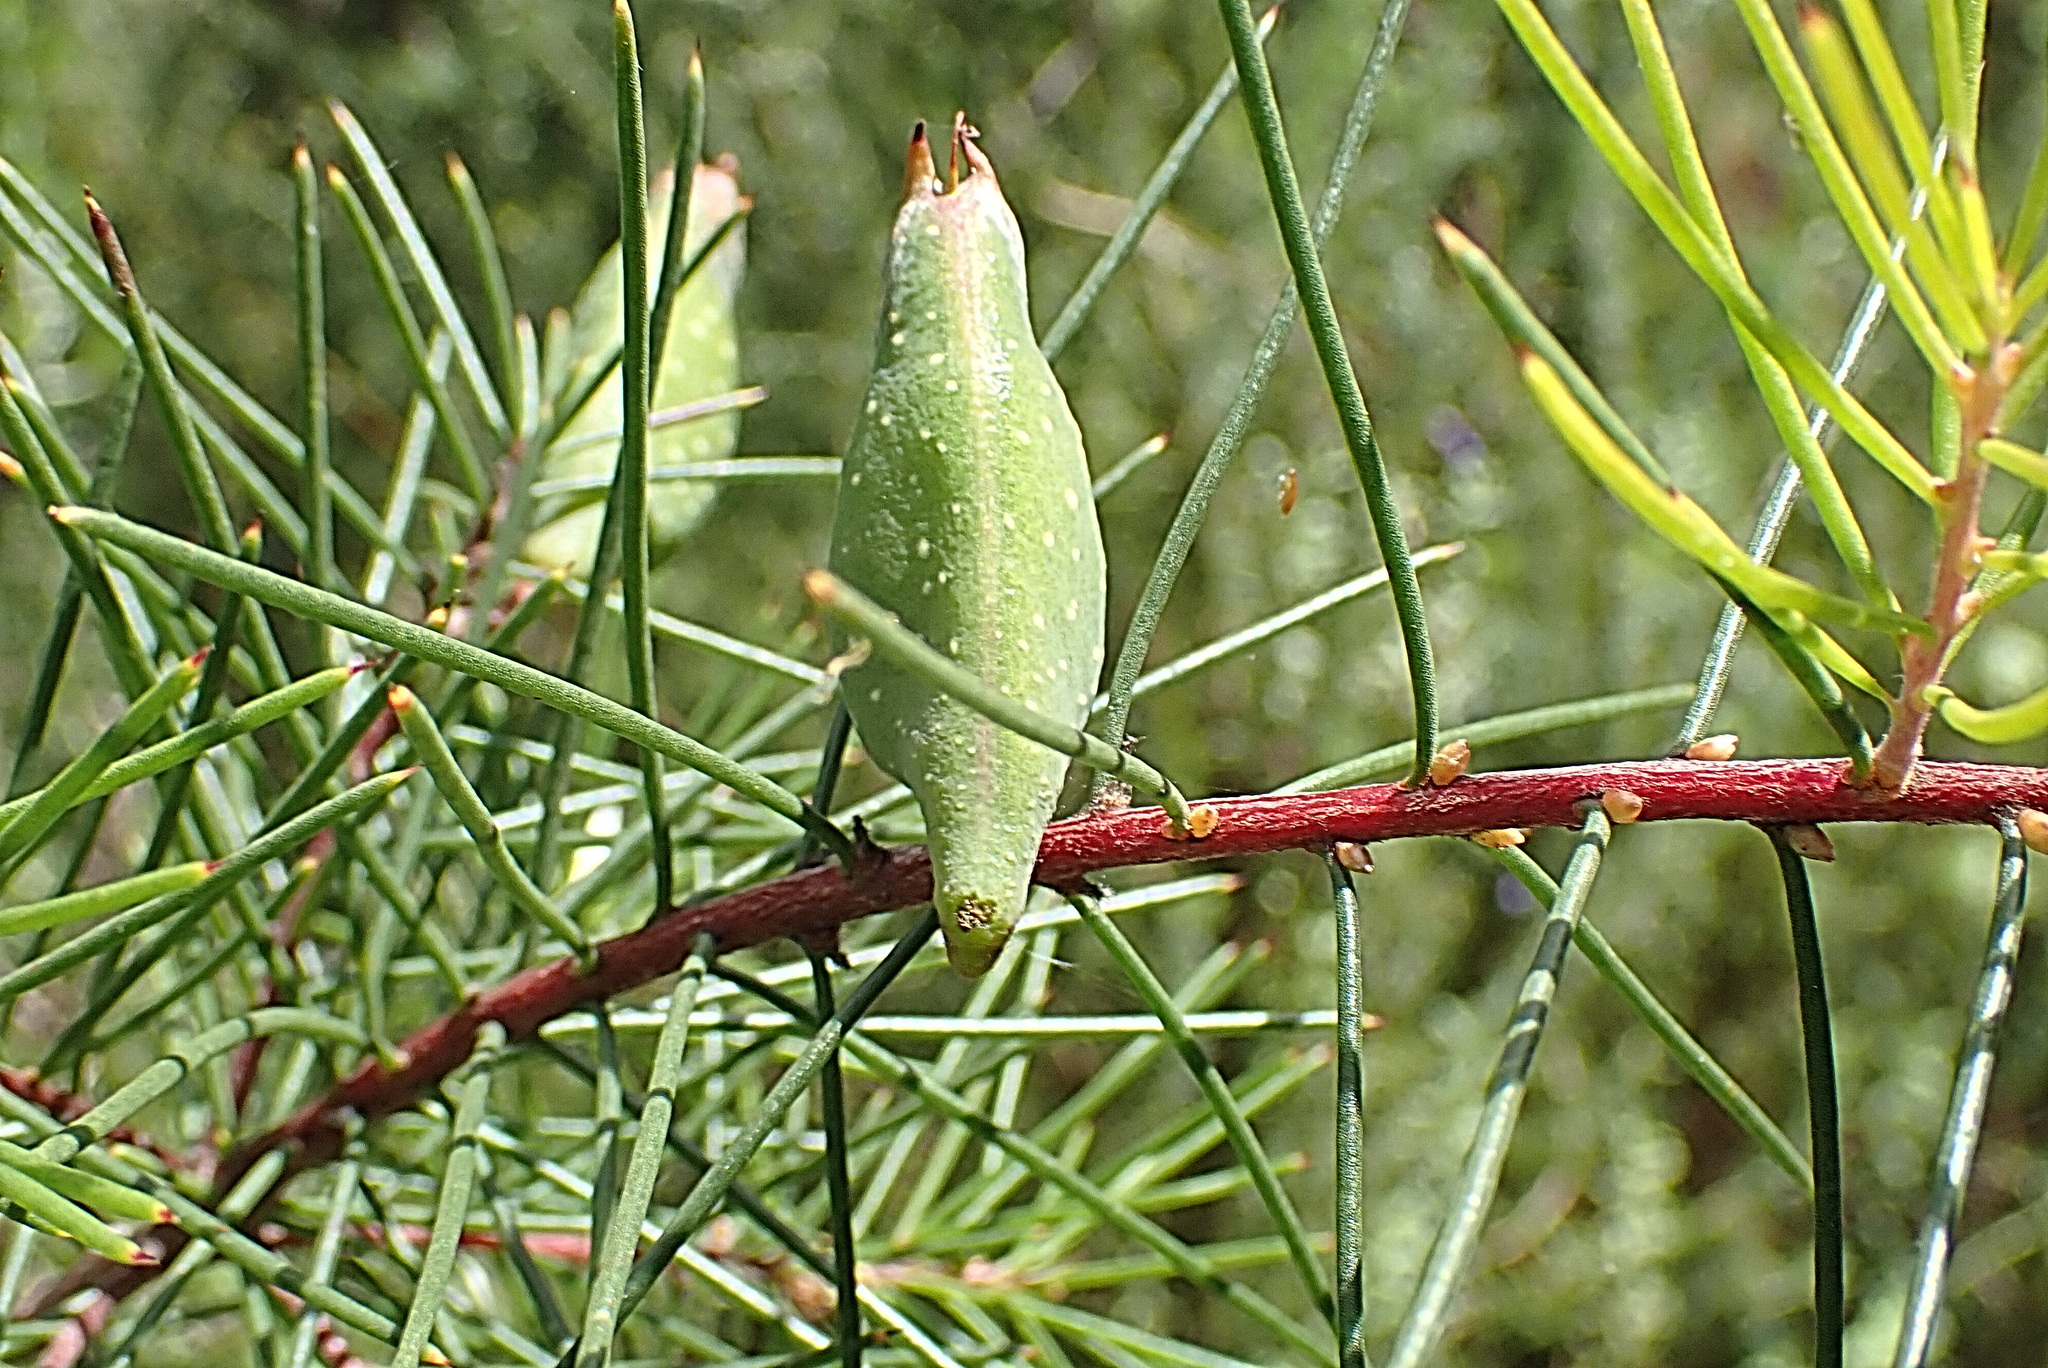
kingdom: Plantae
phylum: Tracheophyta
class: Magnoliopsida
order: Proteales
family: Proteaceae
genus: Hakea
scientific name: Hakea sericea
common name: Needle bush
